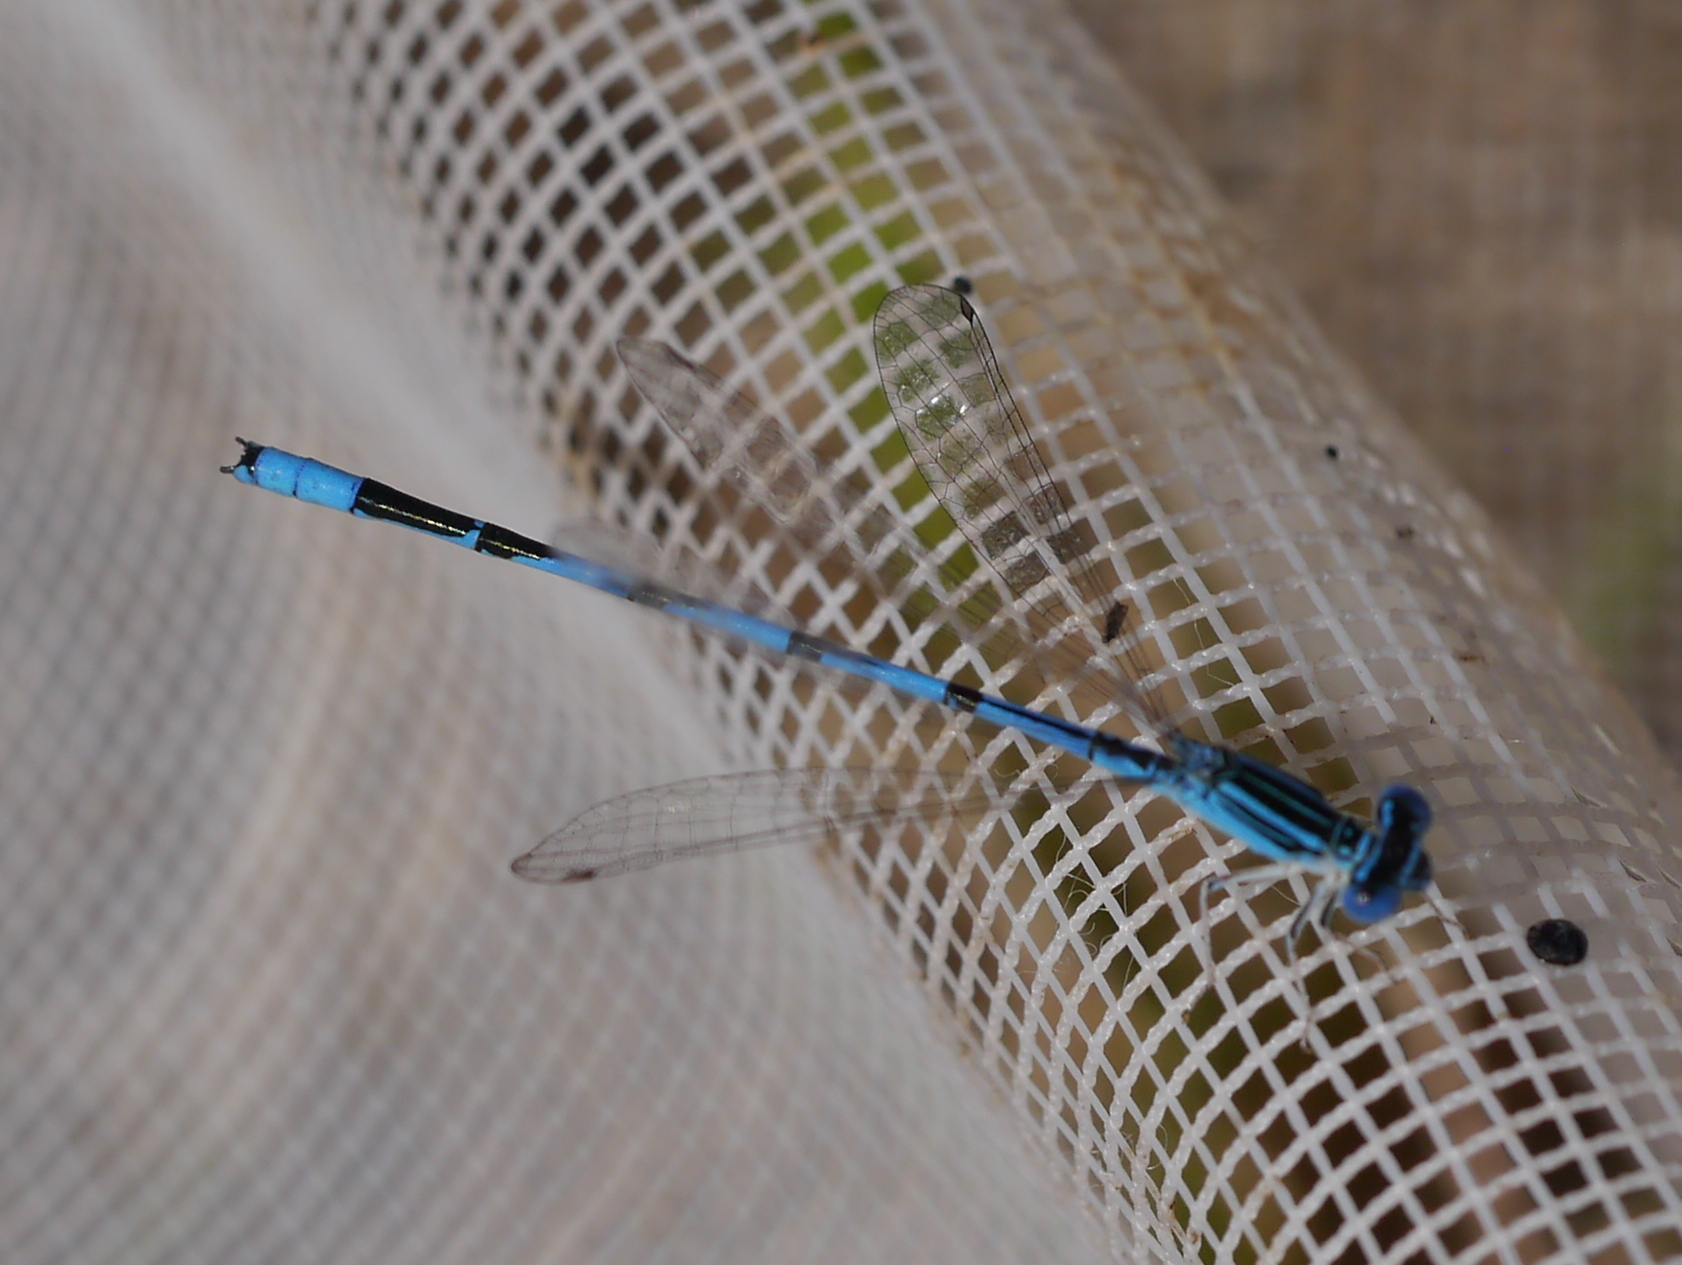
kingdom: Animalia
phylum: Arthropoda
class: Insecta
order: Odonata
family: Coenagrionidae
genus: Enallagma
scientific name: Enallagma basidens
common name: Double-striped bluet
